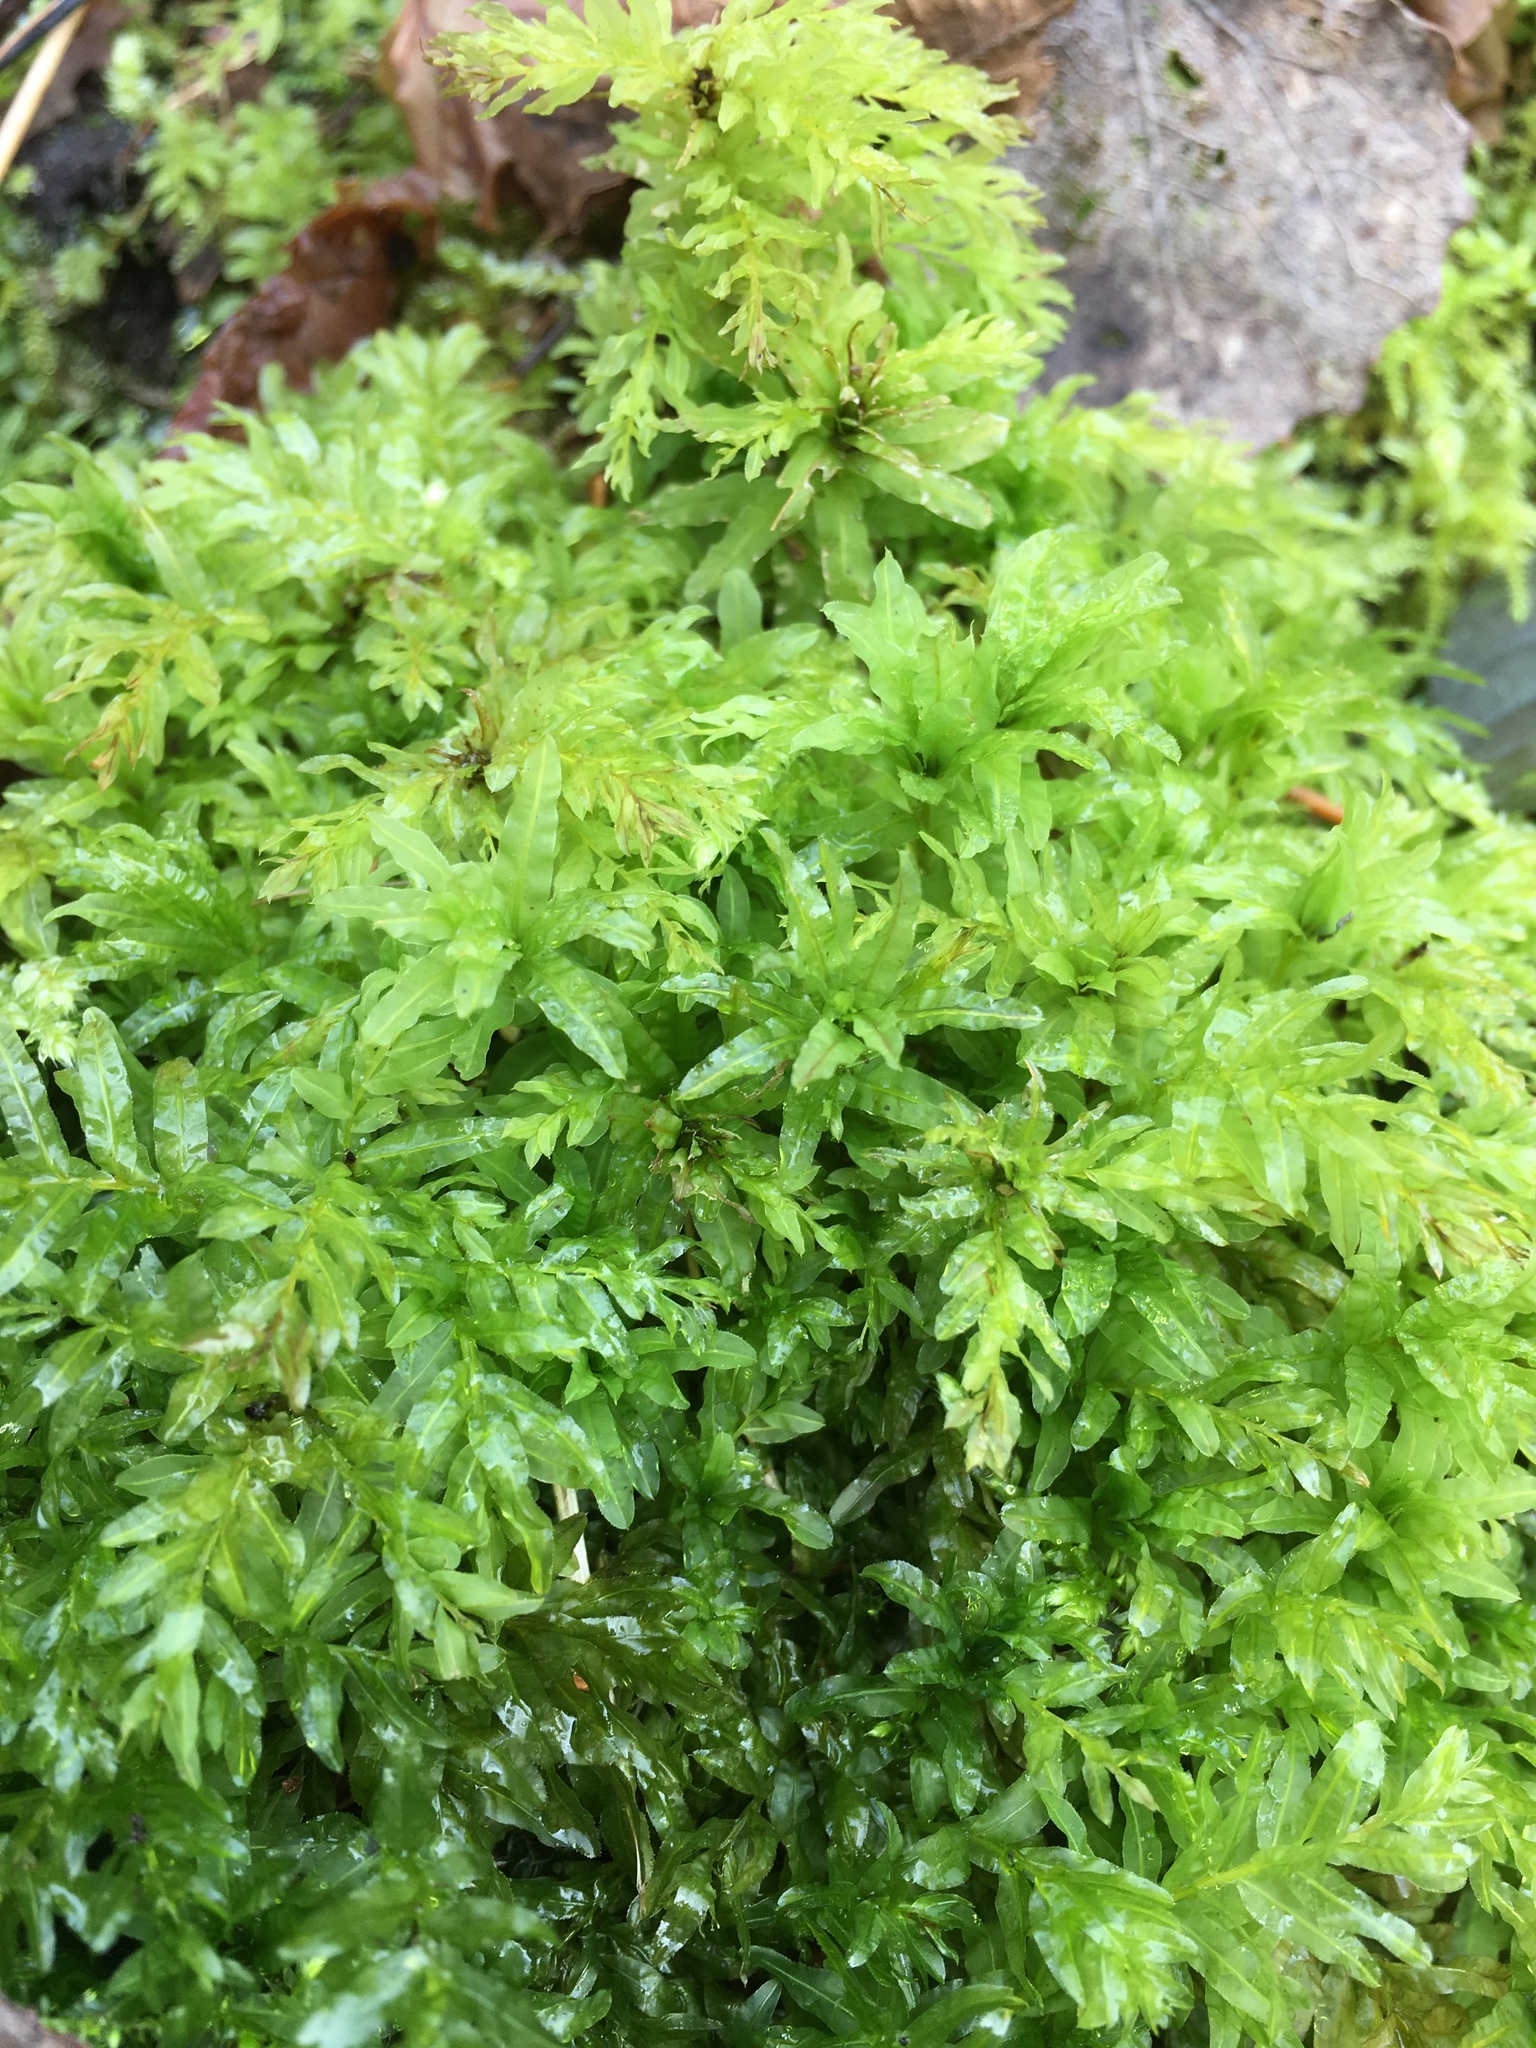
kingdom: Plantae
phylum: Bryophyta
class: Bryopsida
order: Bryales
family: Mniaceae
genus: Plagiomnium
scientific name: Plagiomnium undulatum
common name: Hart's-tongue thyme-moss
